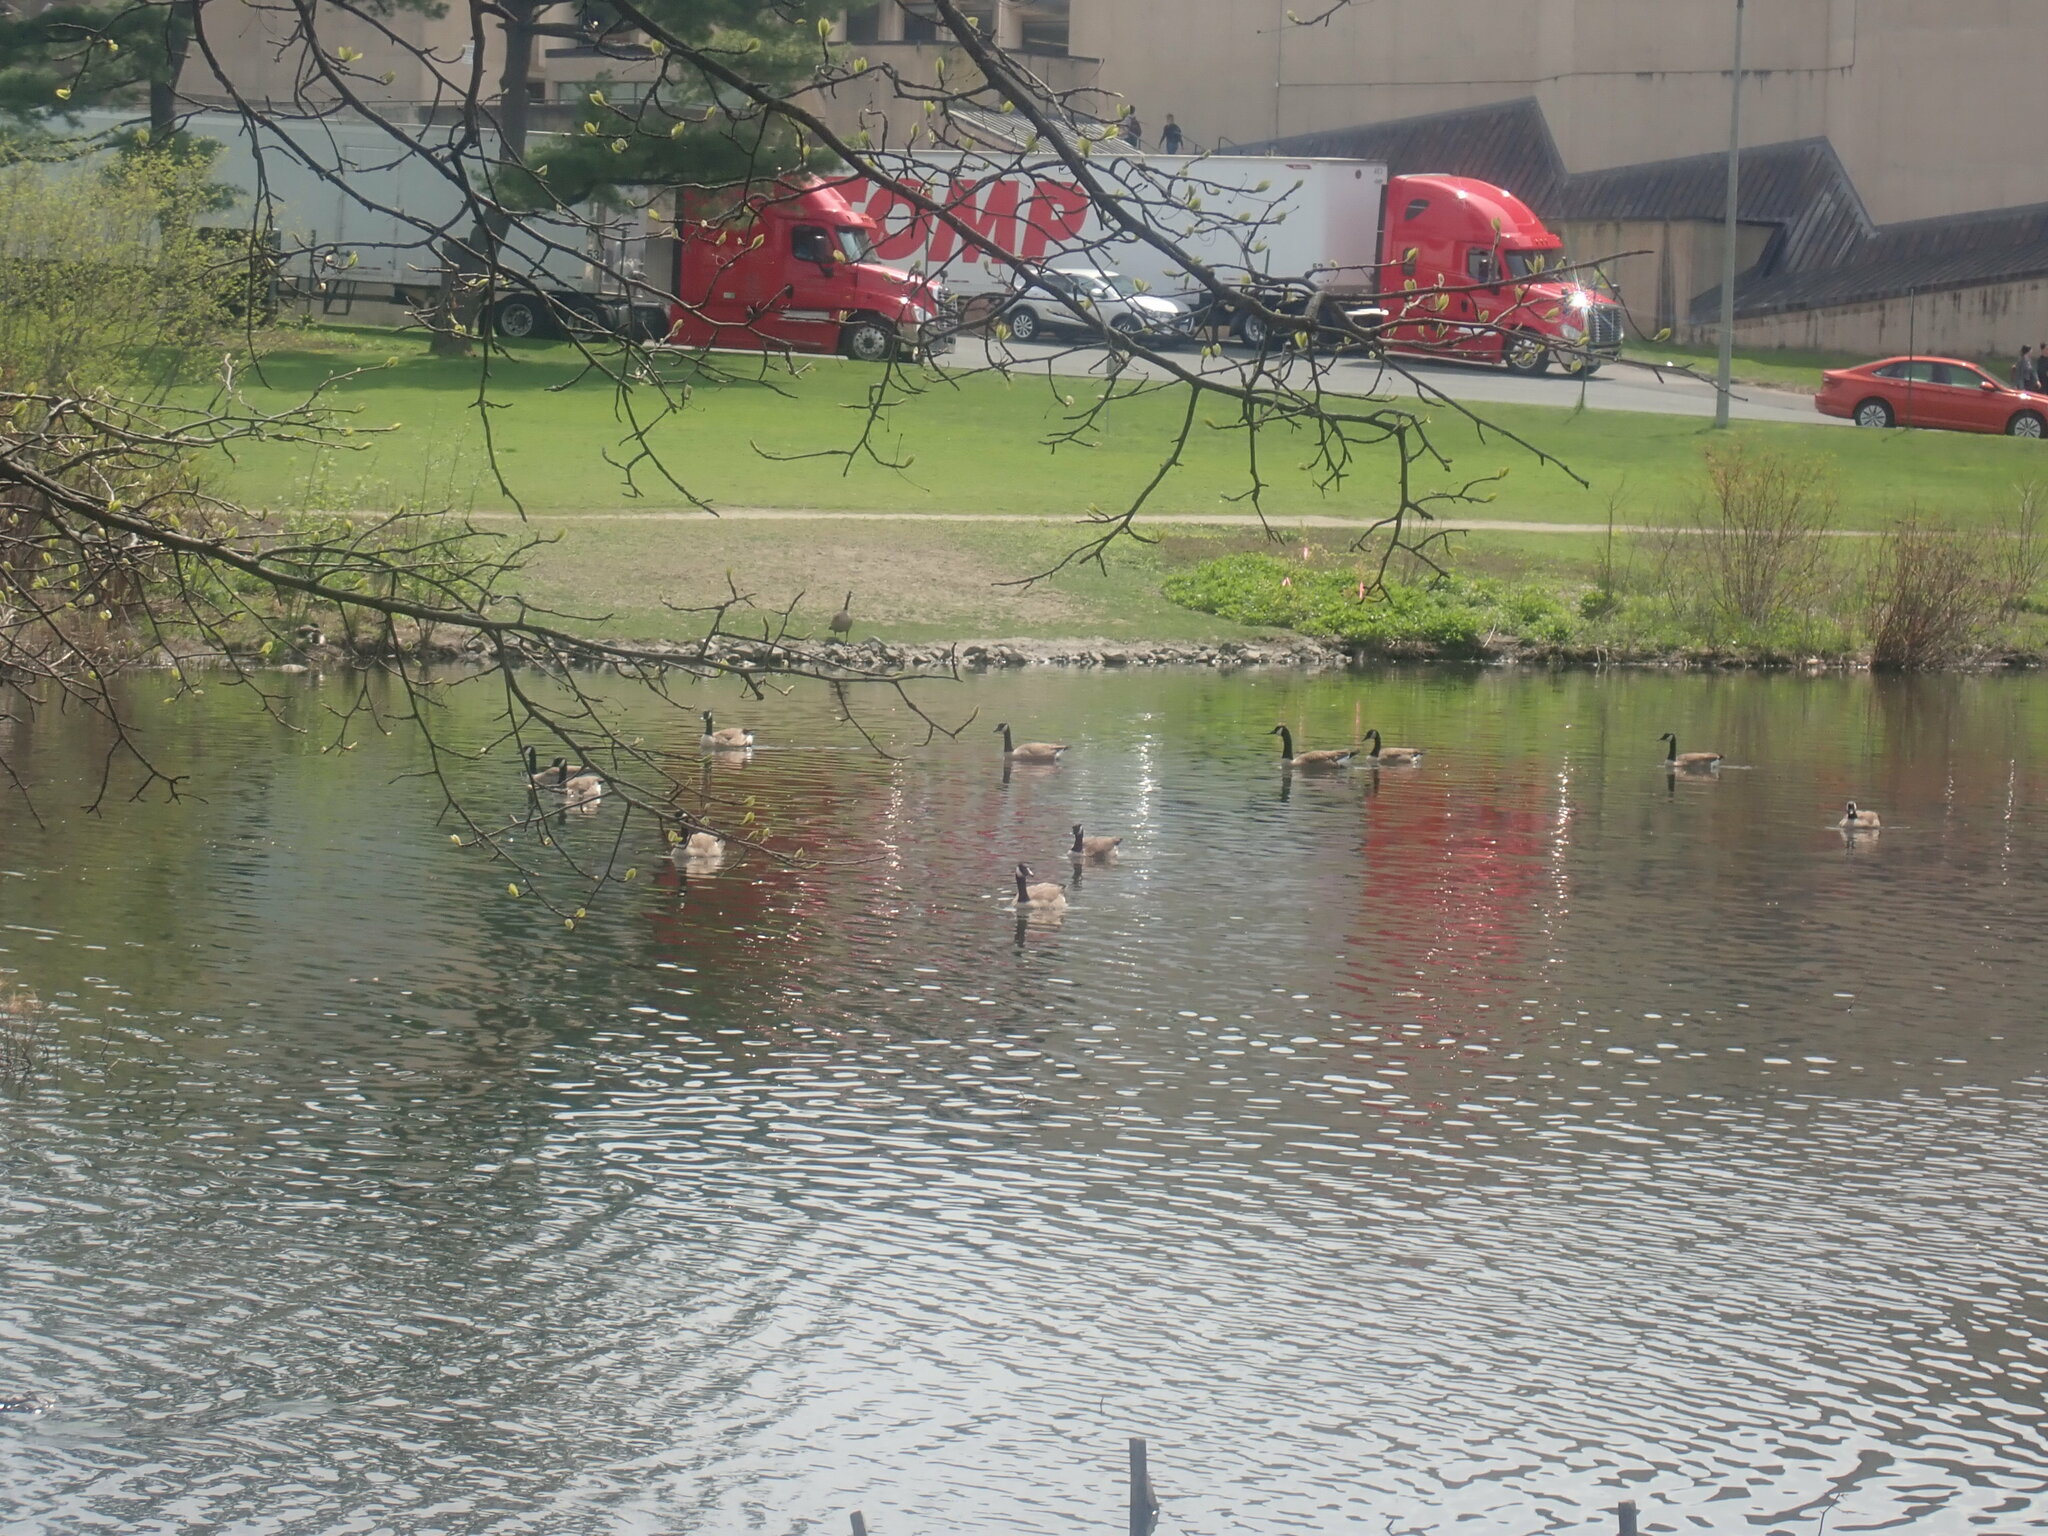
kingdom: Animalia
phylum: Chordata
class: Aves
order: Anseriformes
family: Anatidae
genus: Branta
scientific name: Branta canadensis
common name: Canada goose
